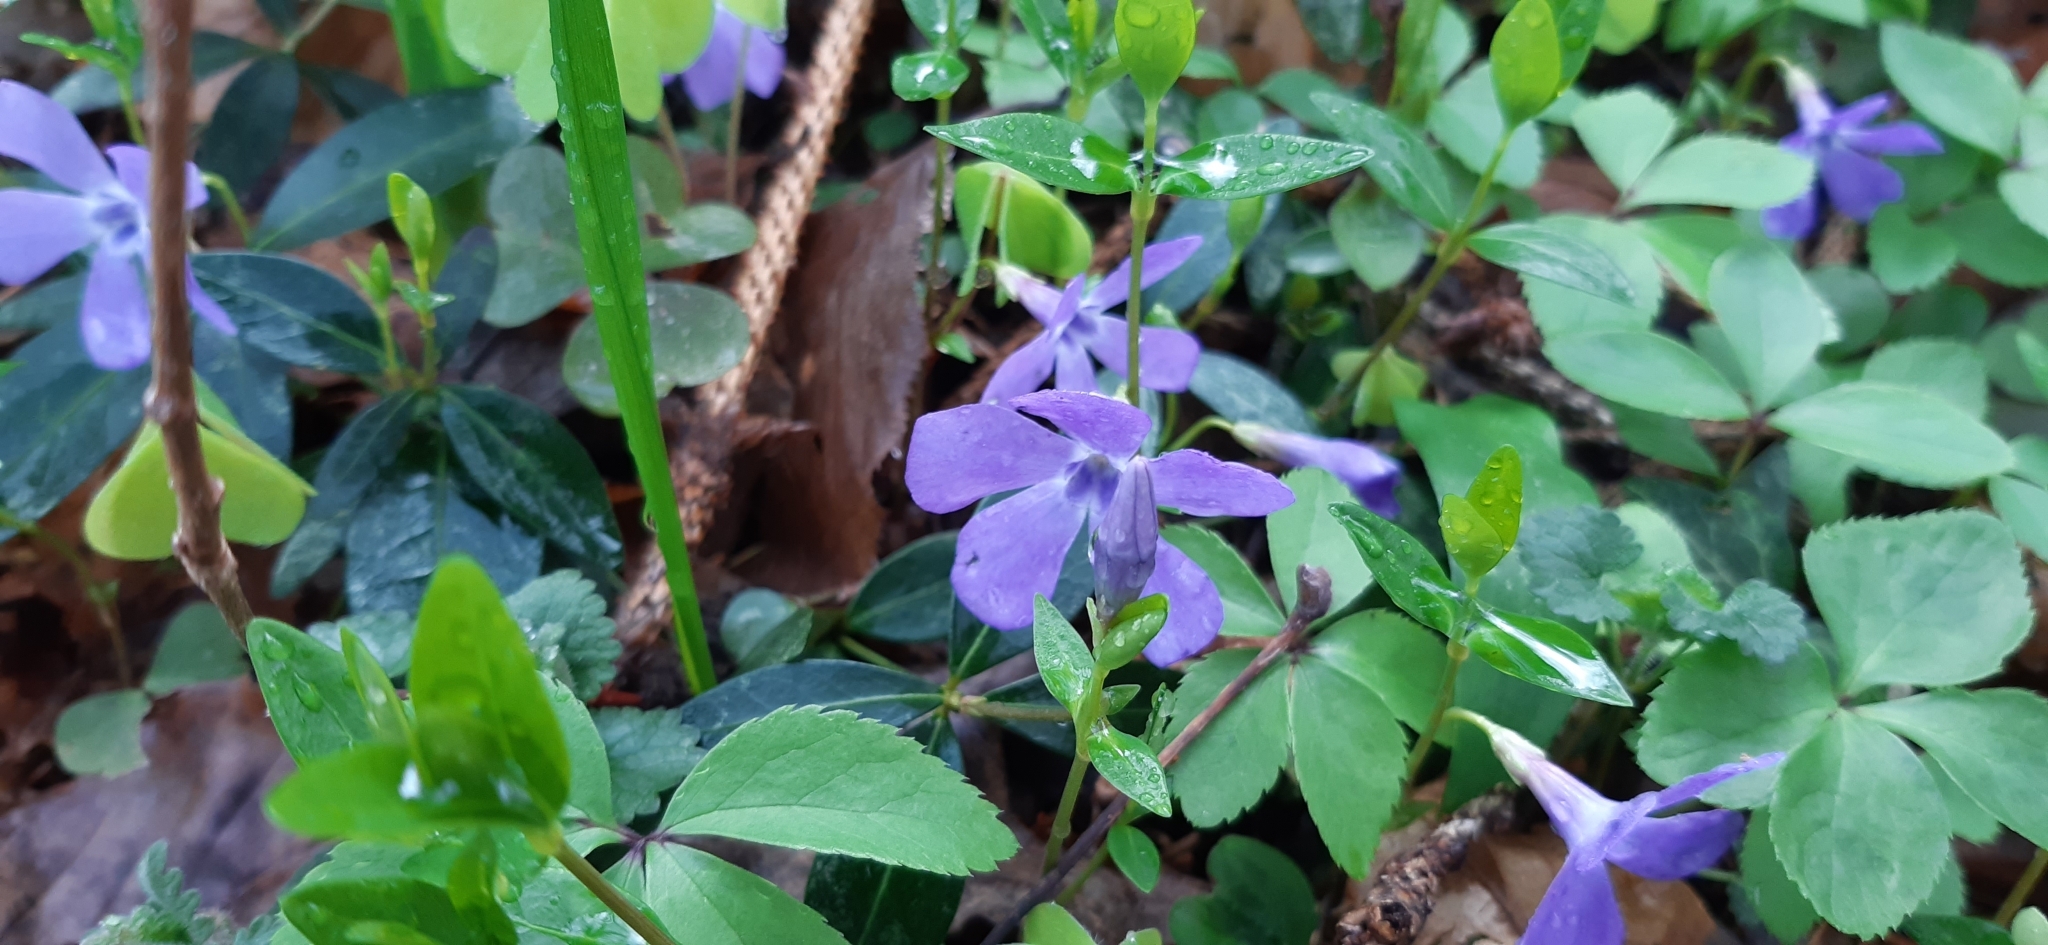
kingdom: Plantae
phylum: Tracheophyta
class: Magnoliopsida
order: Gentianales
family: Apocynaceae
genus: Vinca
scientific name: Vinca minor
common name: Lesser periwinkle
